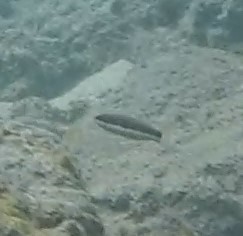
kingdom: Animalia
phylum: Chordata
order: Perciformes
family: Labridae
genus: Thalassoma
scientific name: Thalassoma duperrey
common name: Saddle wrasse
